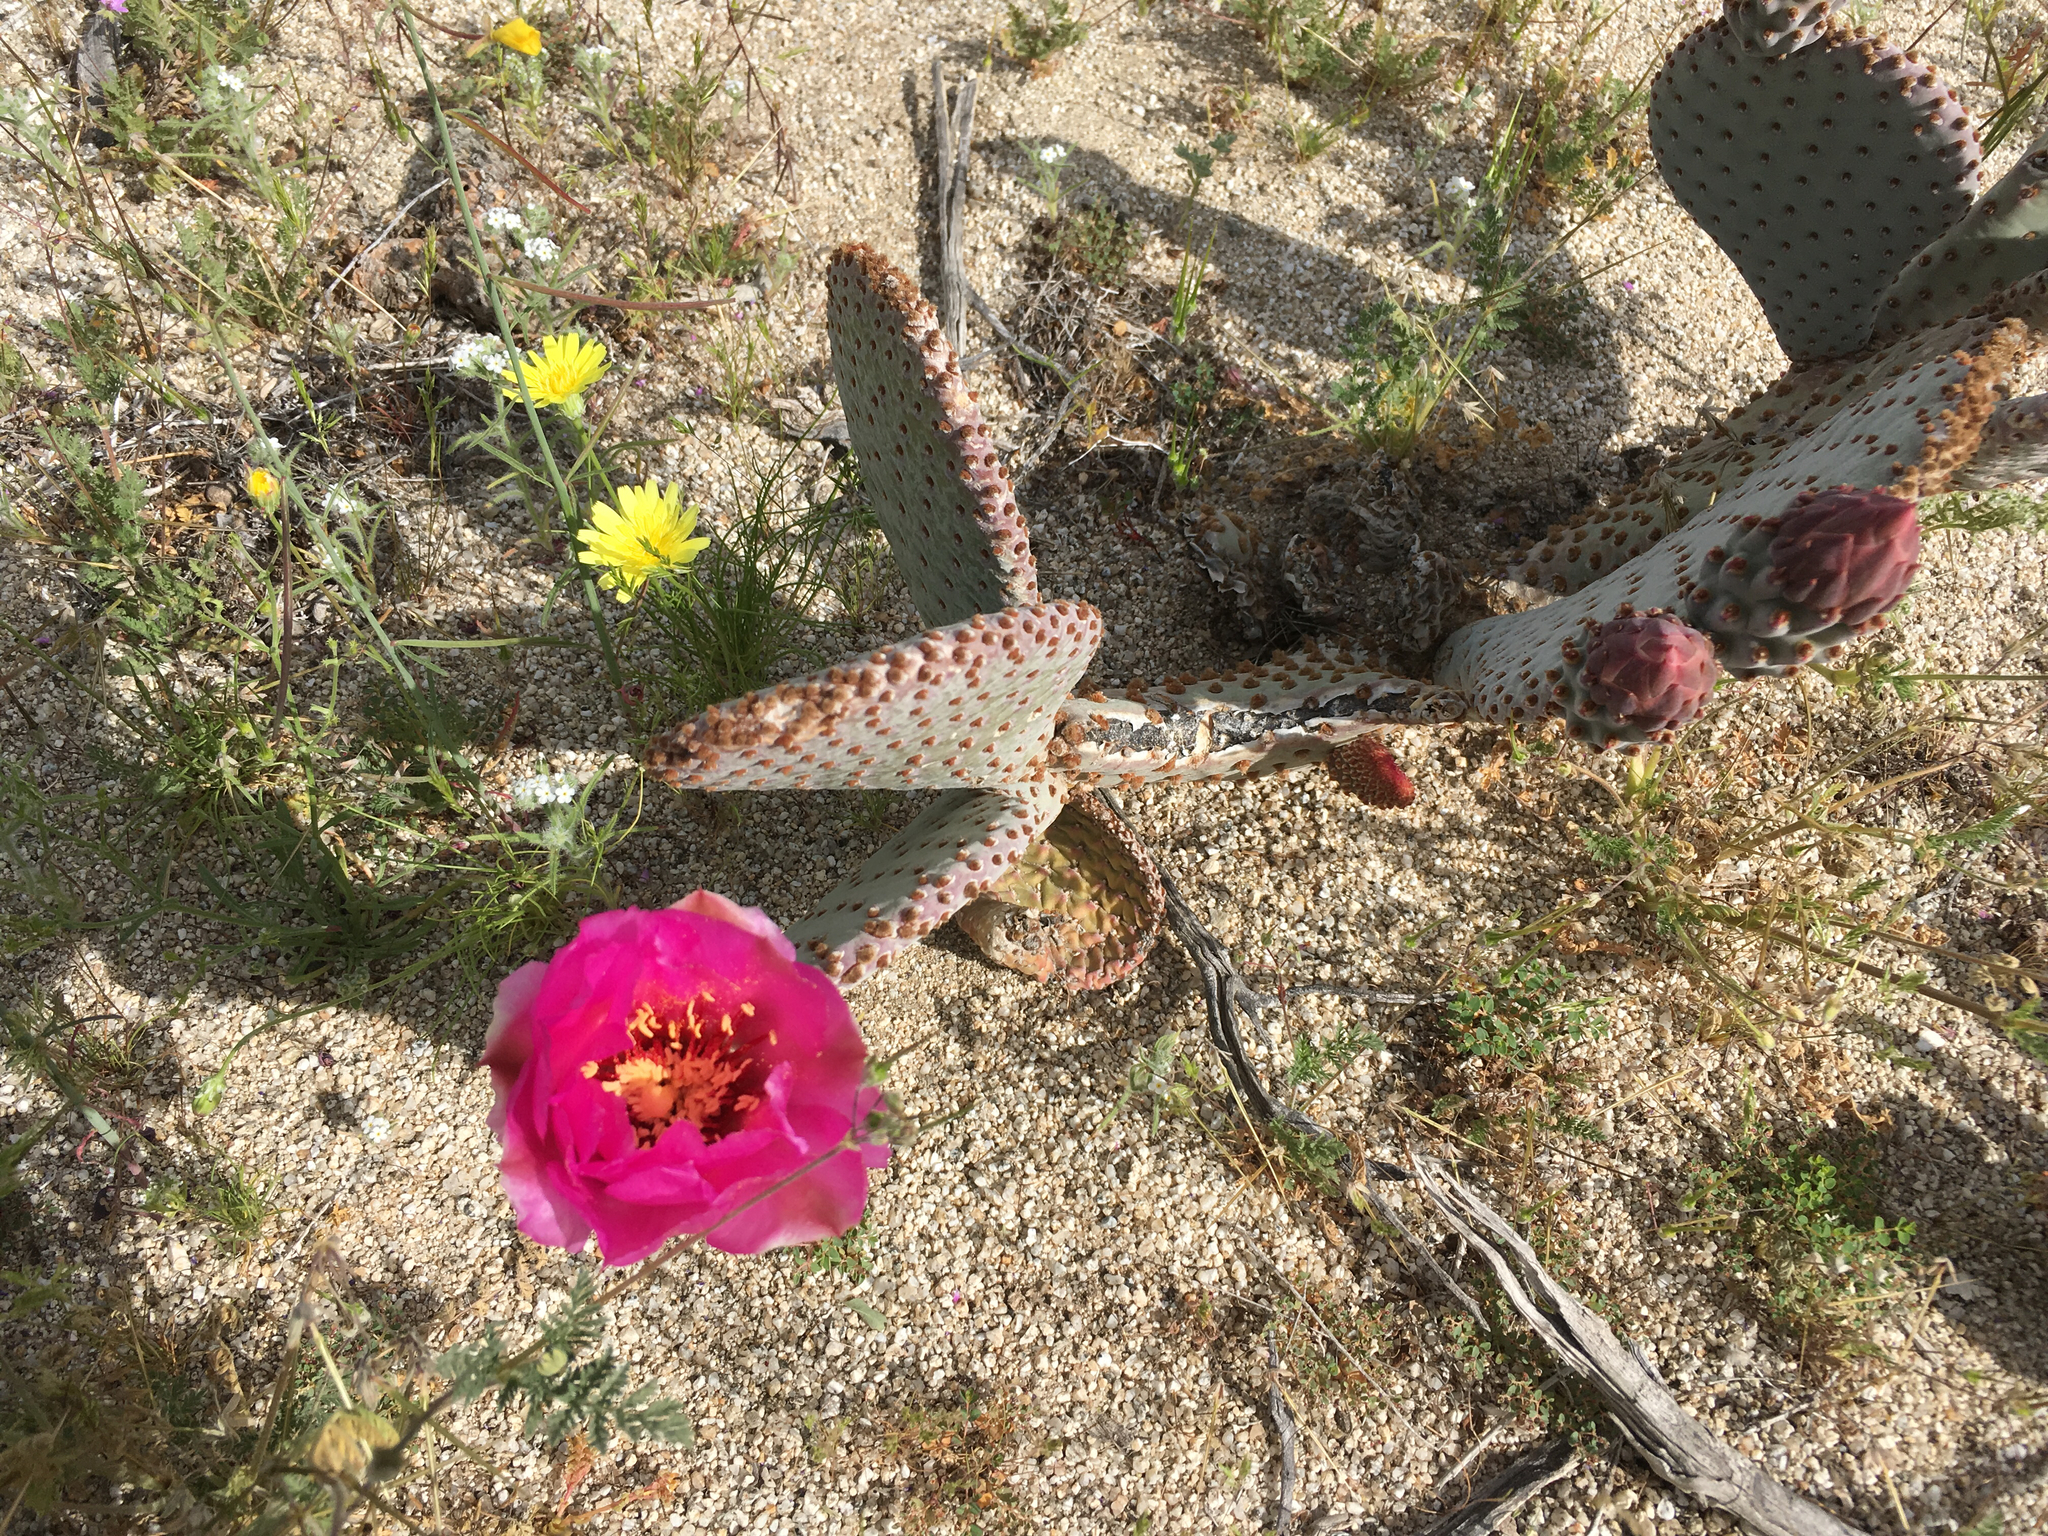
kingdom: Plantae
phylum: Tracheophyta
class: Magnoliopsida
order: Caryophyllales
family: Cactaceae
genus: Opuntia
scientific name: Opuntia basilaris
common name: Beavertail prickly-pear
